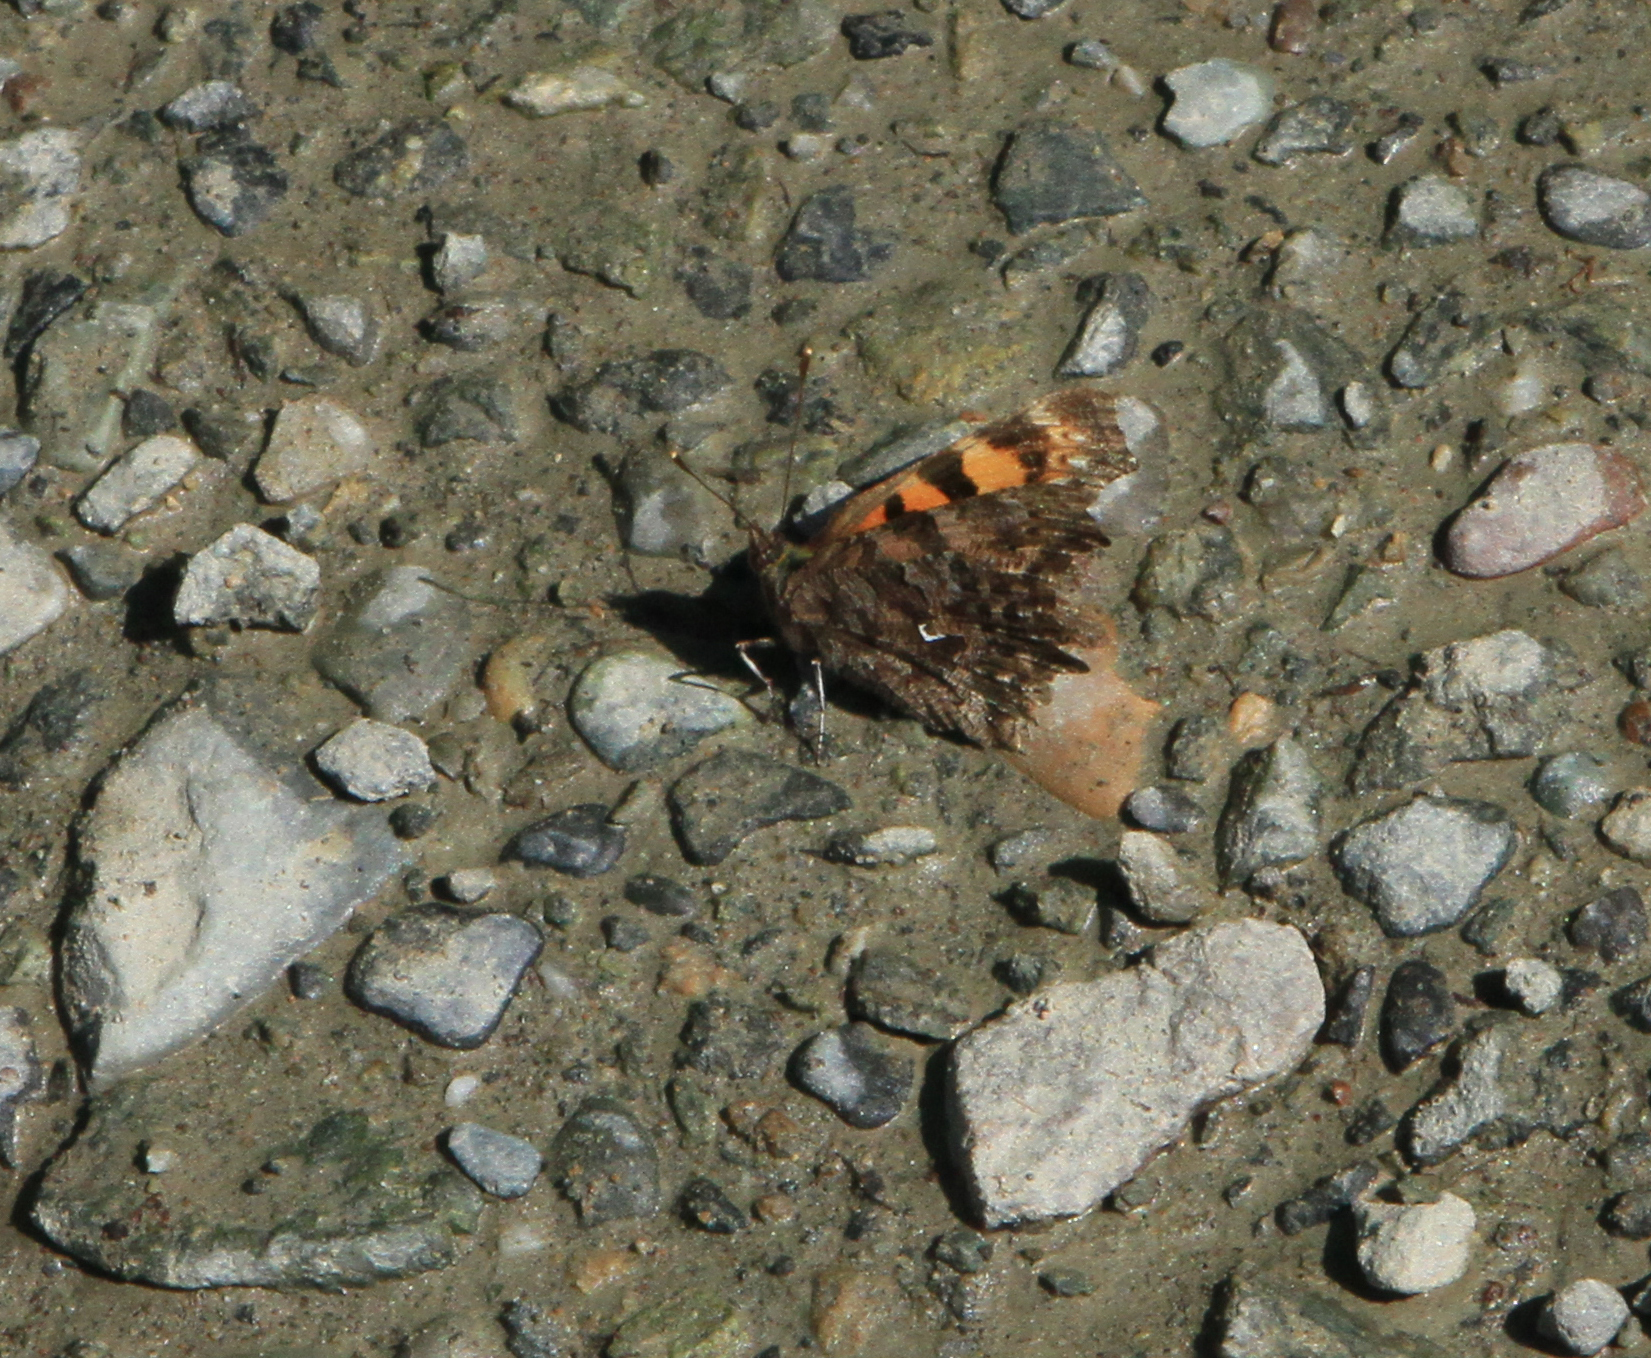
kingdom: Animalia
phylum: Arthropoda
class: Insecta
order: Lepidoptera
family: Nymphalidae
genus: Polygonia
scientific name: Polygonia c-album
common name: Comma
